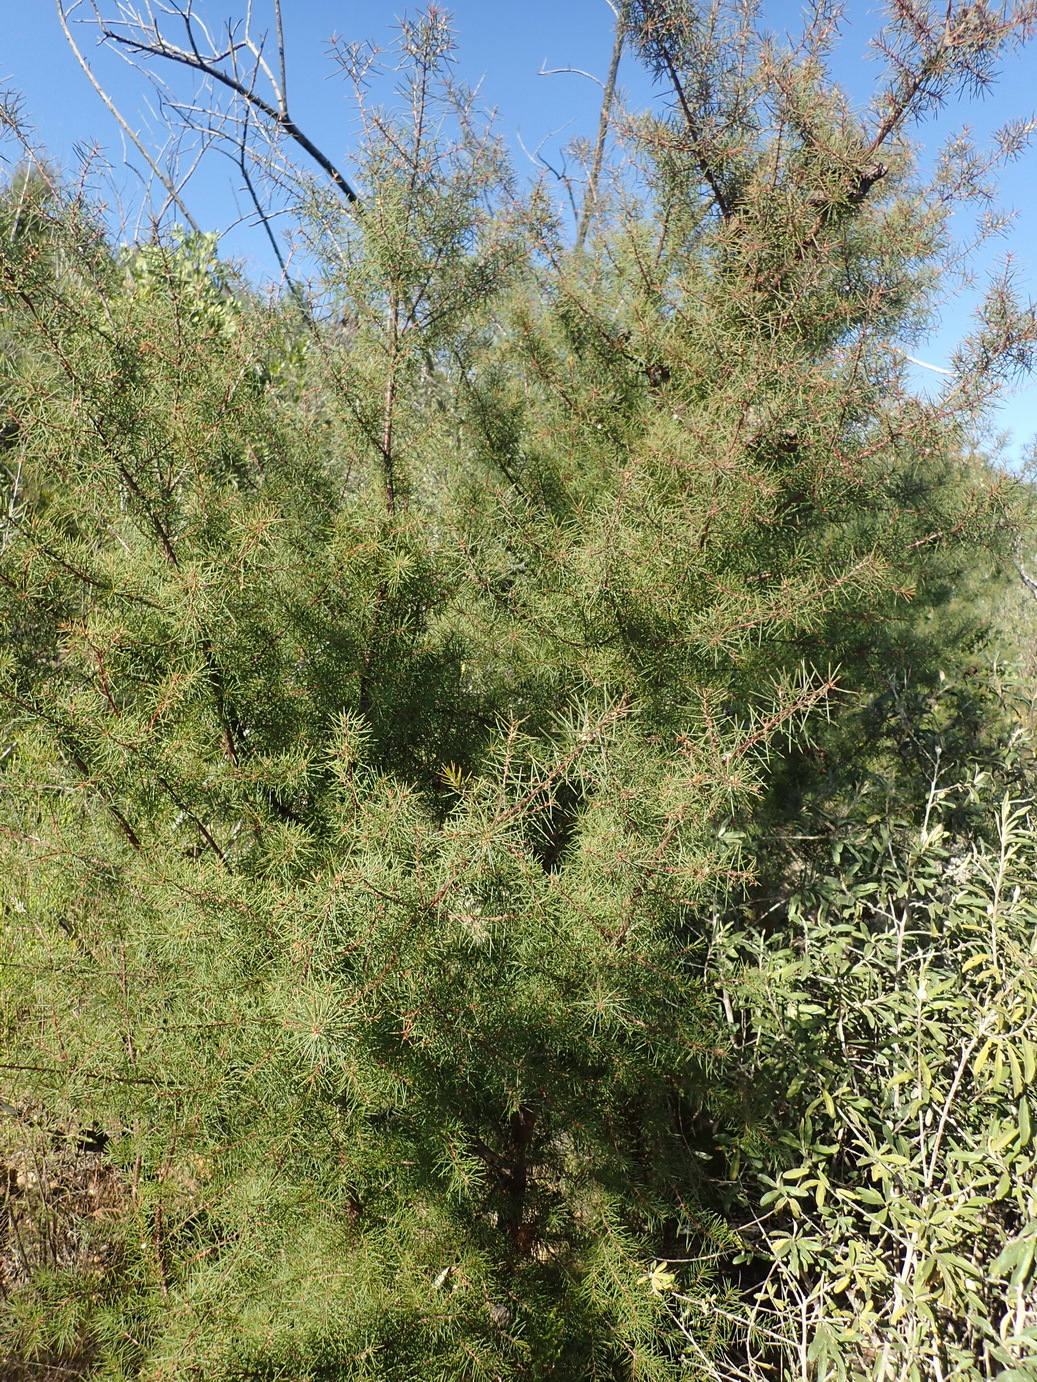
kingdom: Plantae
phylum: Tracheophyta
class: Magnoliopsida
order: Proteales
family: Proteaceae
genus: Hakea
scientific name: Hakea sericea
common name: Needle bush
